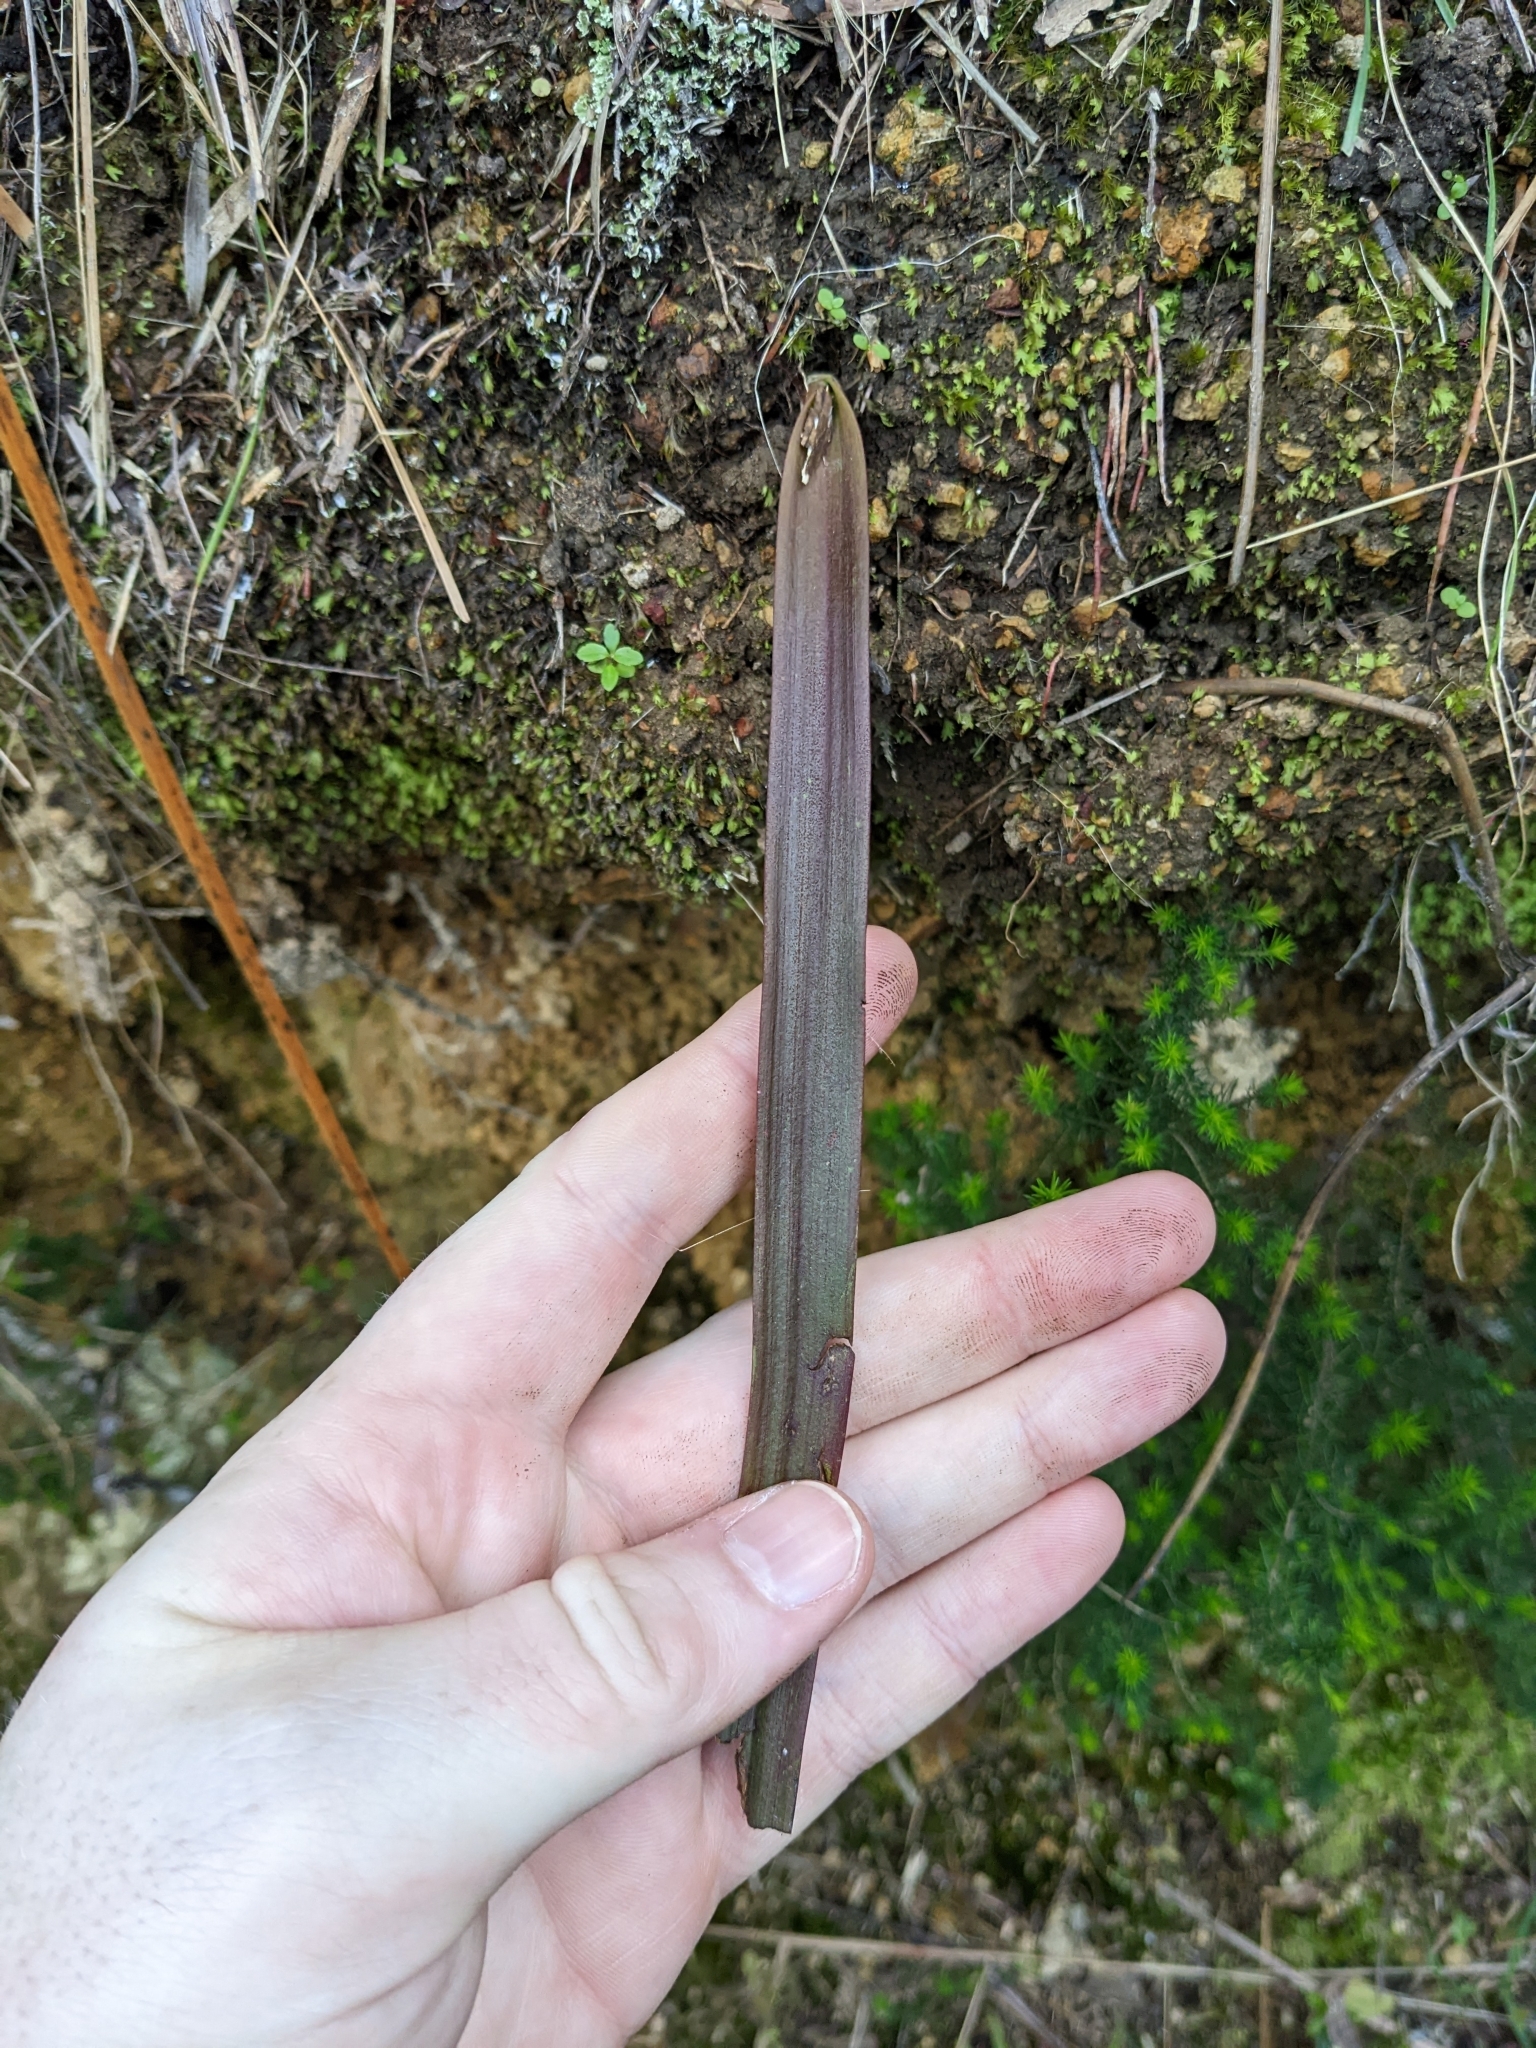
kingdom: Plantae
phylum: Tracheophyta
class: Liliopsida
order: Asparagales
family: Orchidaceae
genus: Thelymitra
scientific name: Thelymitra longifolia
